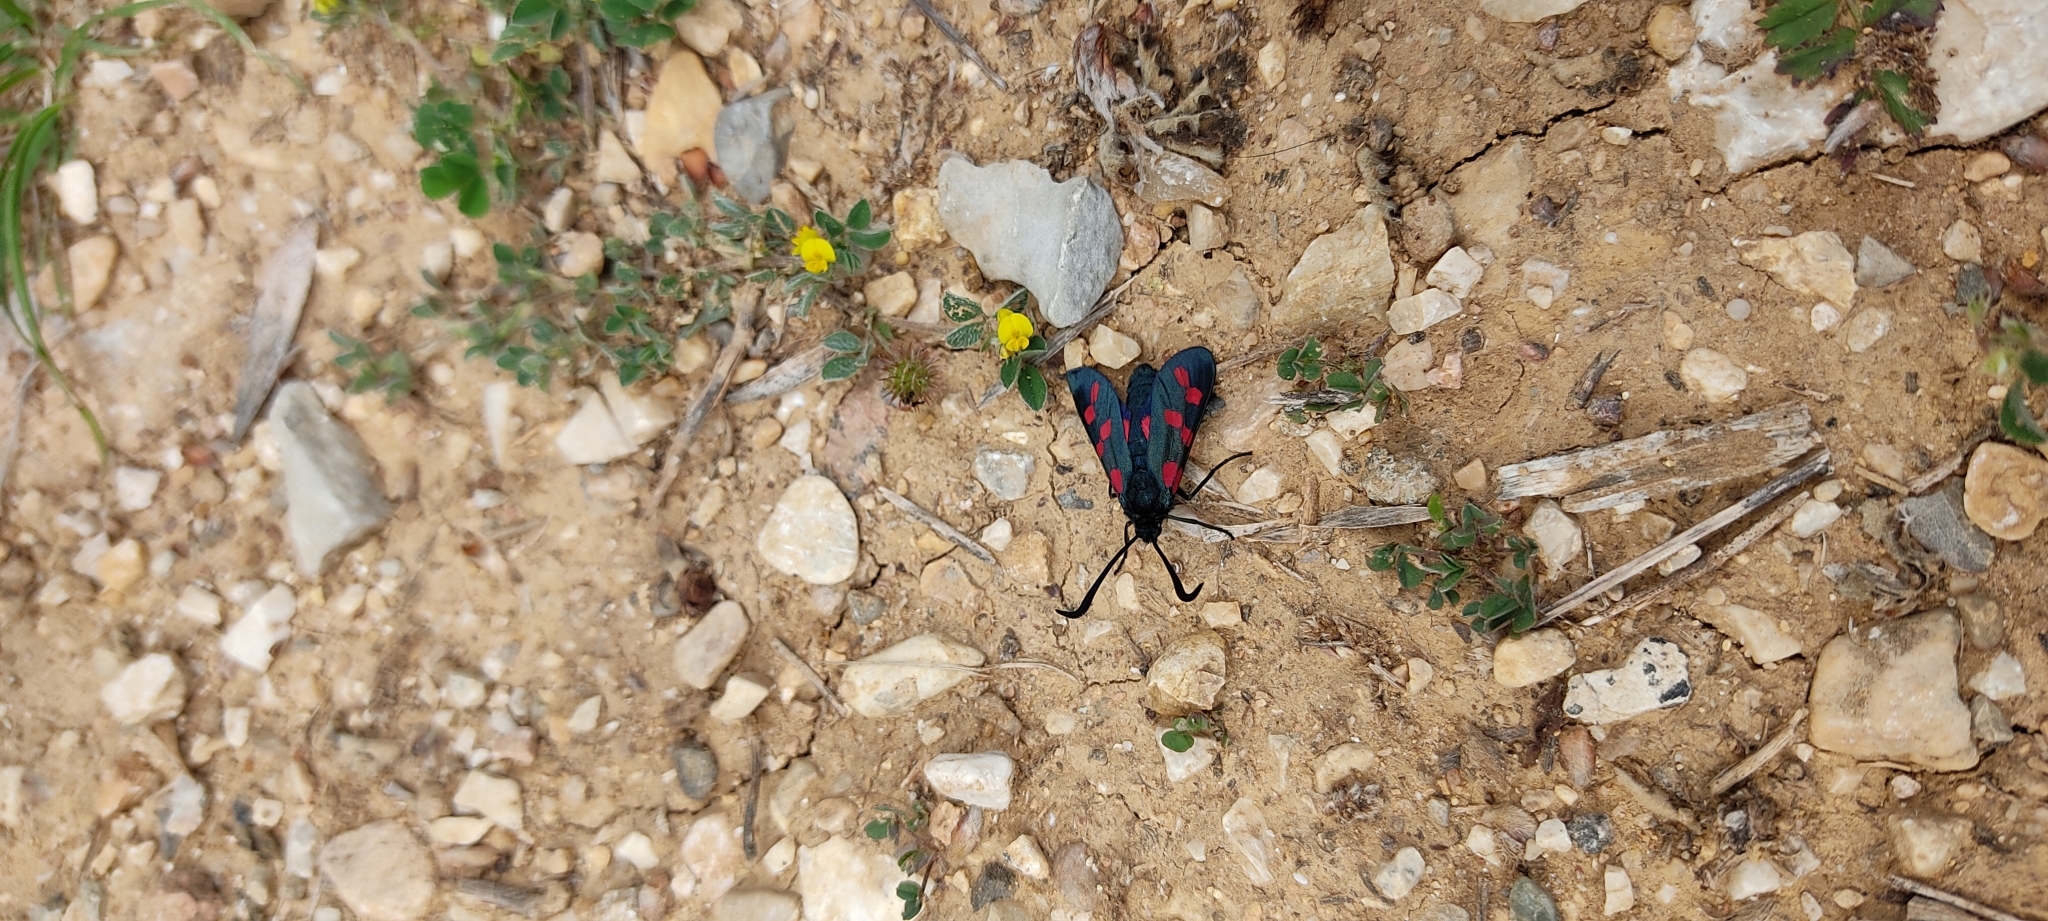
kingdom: Animalia
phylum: Arthropoda
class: Insecta
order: Lepidoptera
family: Zygaenidae
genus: Zygaena
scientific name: Zygaena filipendulae
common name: Six-spot burnet
